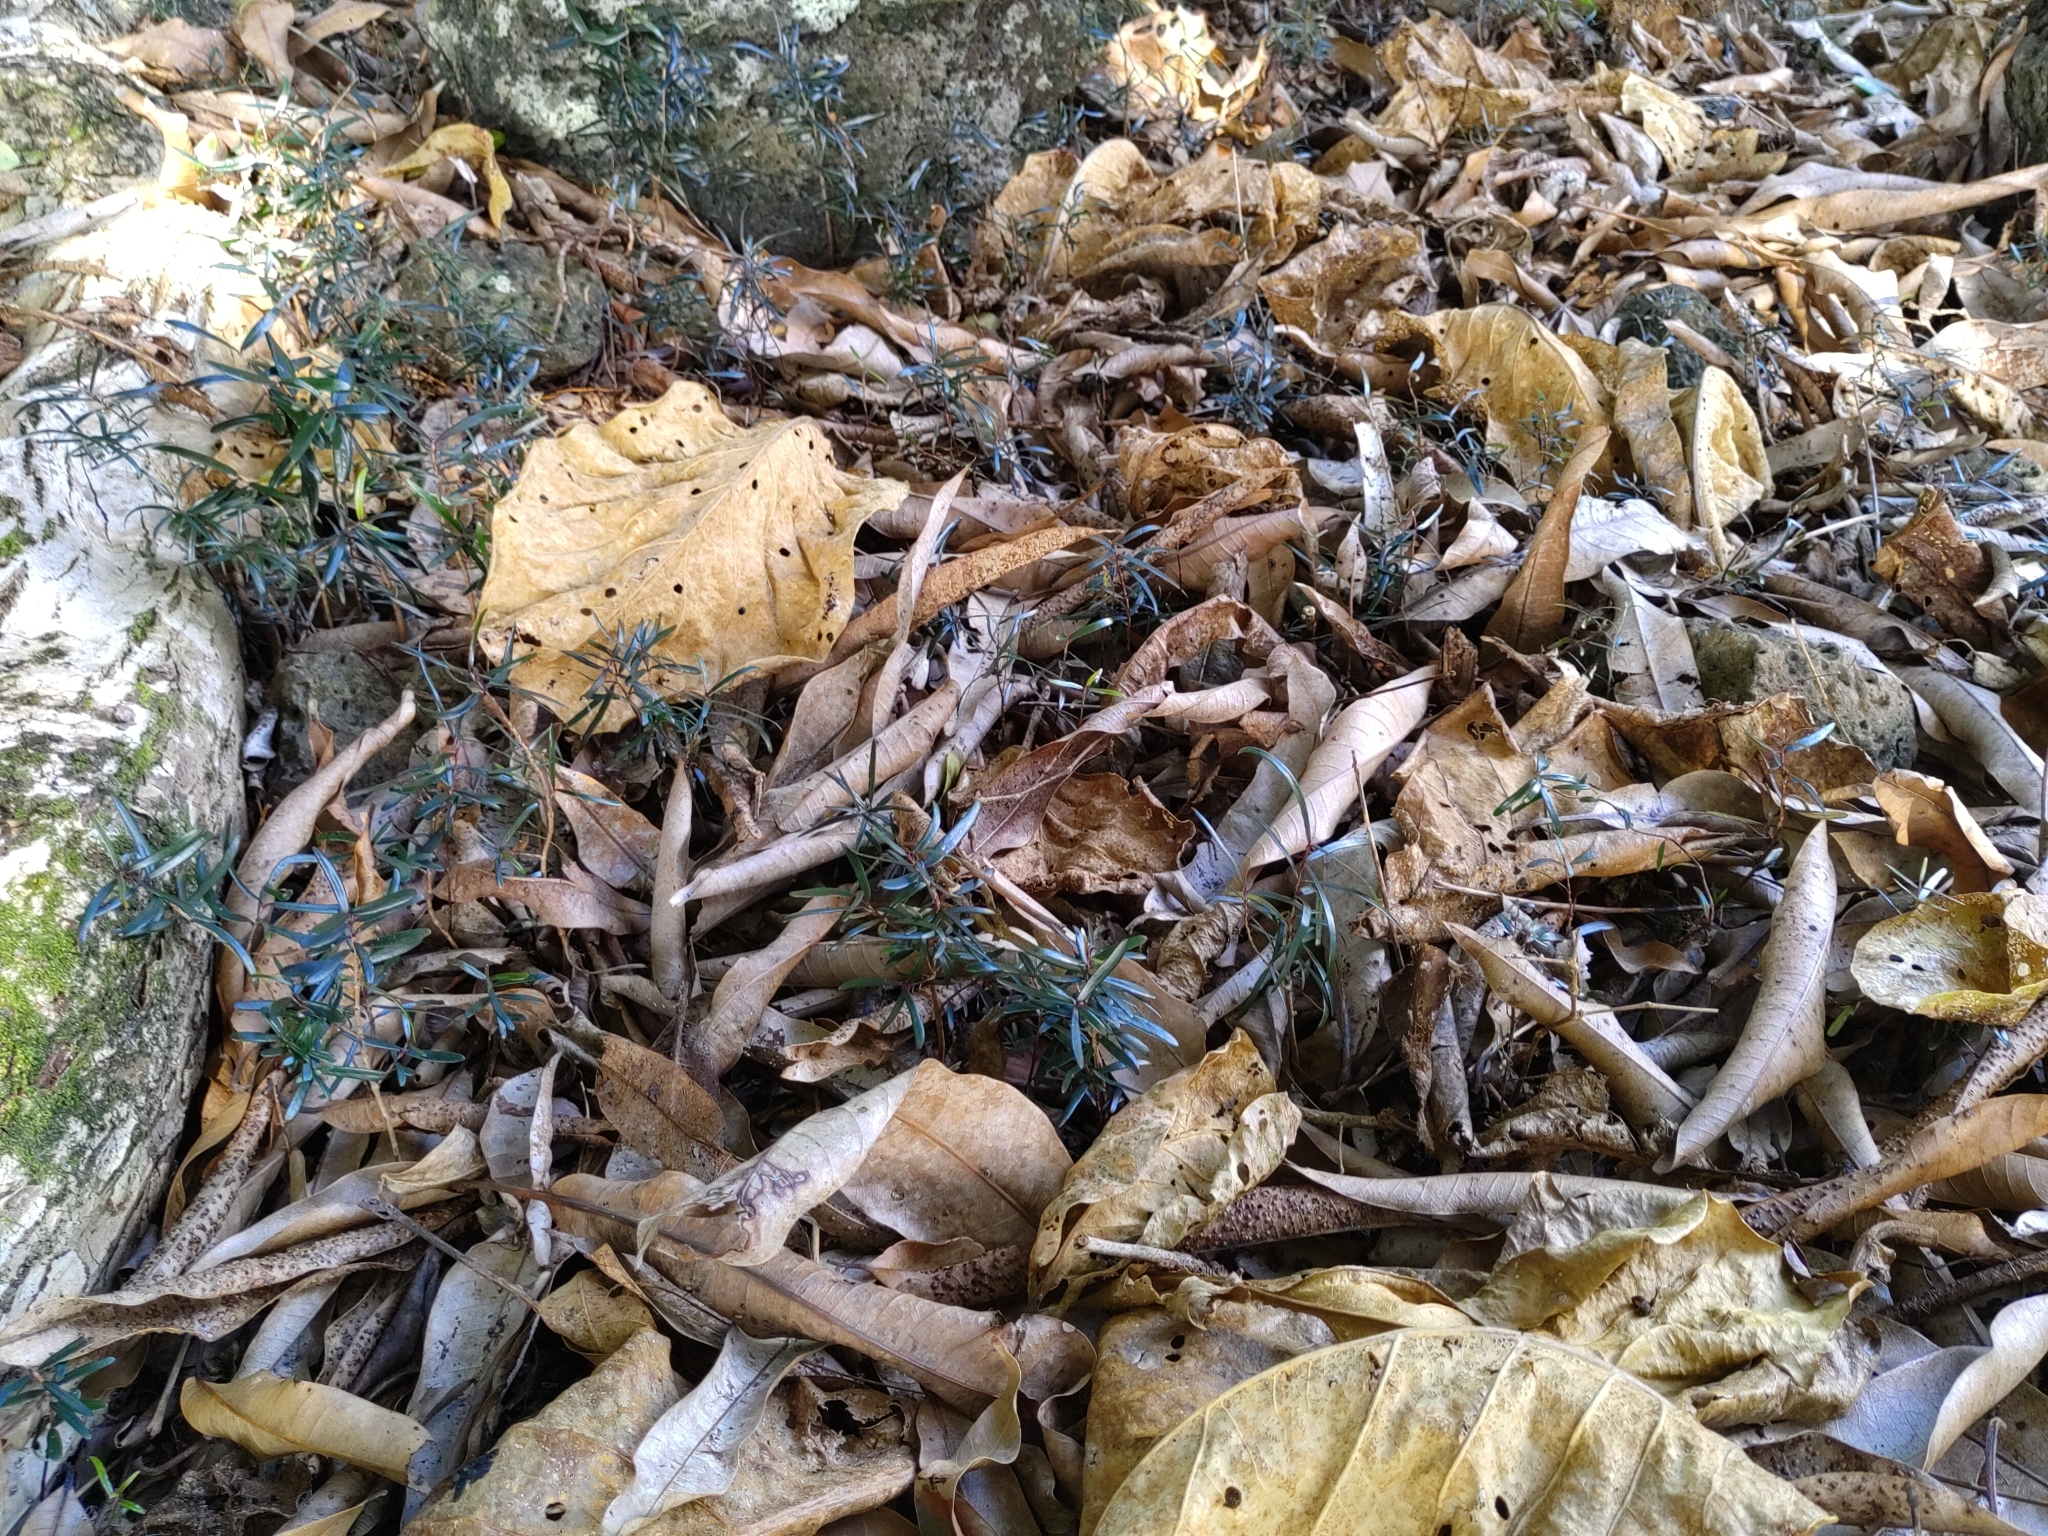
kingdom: Plantae
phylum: Tracheophyta
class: Magnoliopsida
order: Myrtales
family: Myrtaceae
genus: Eugenia
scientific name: Eugenia lucida
